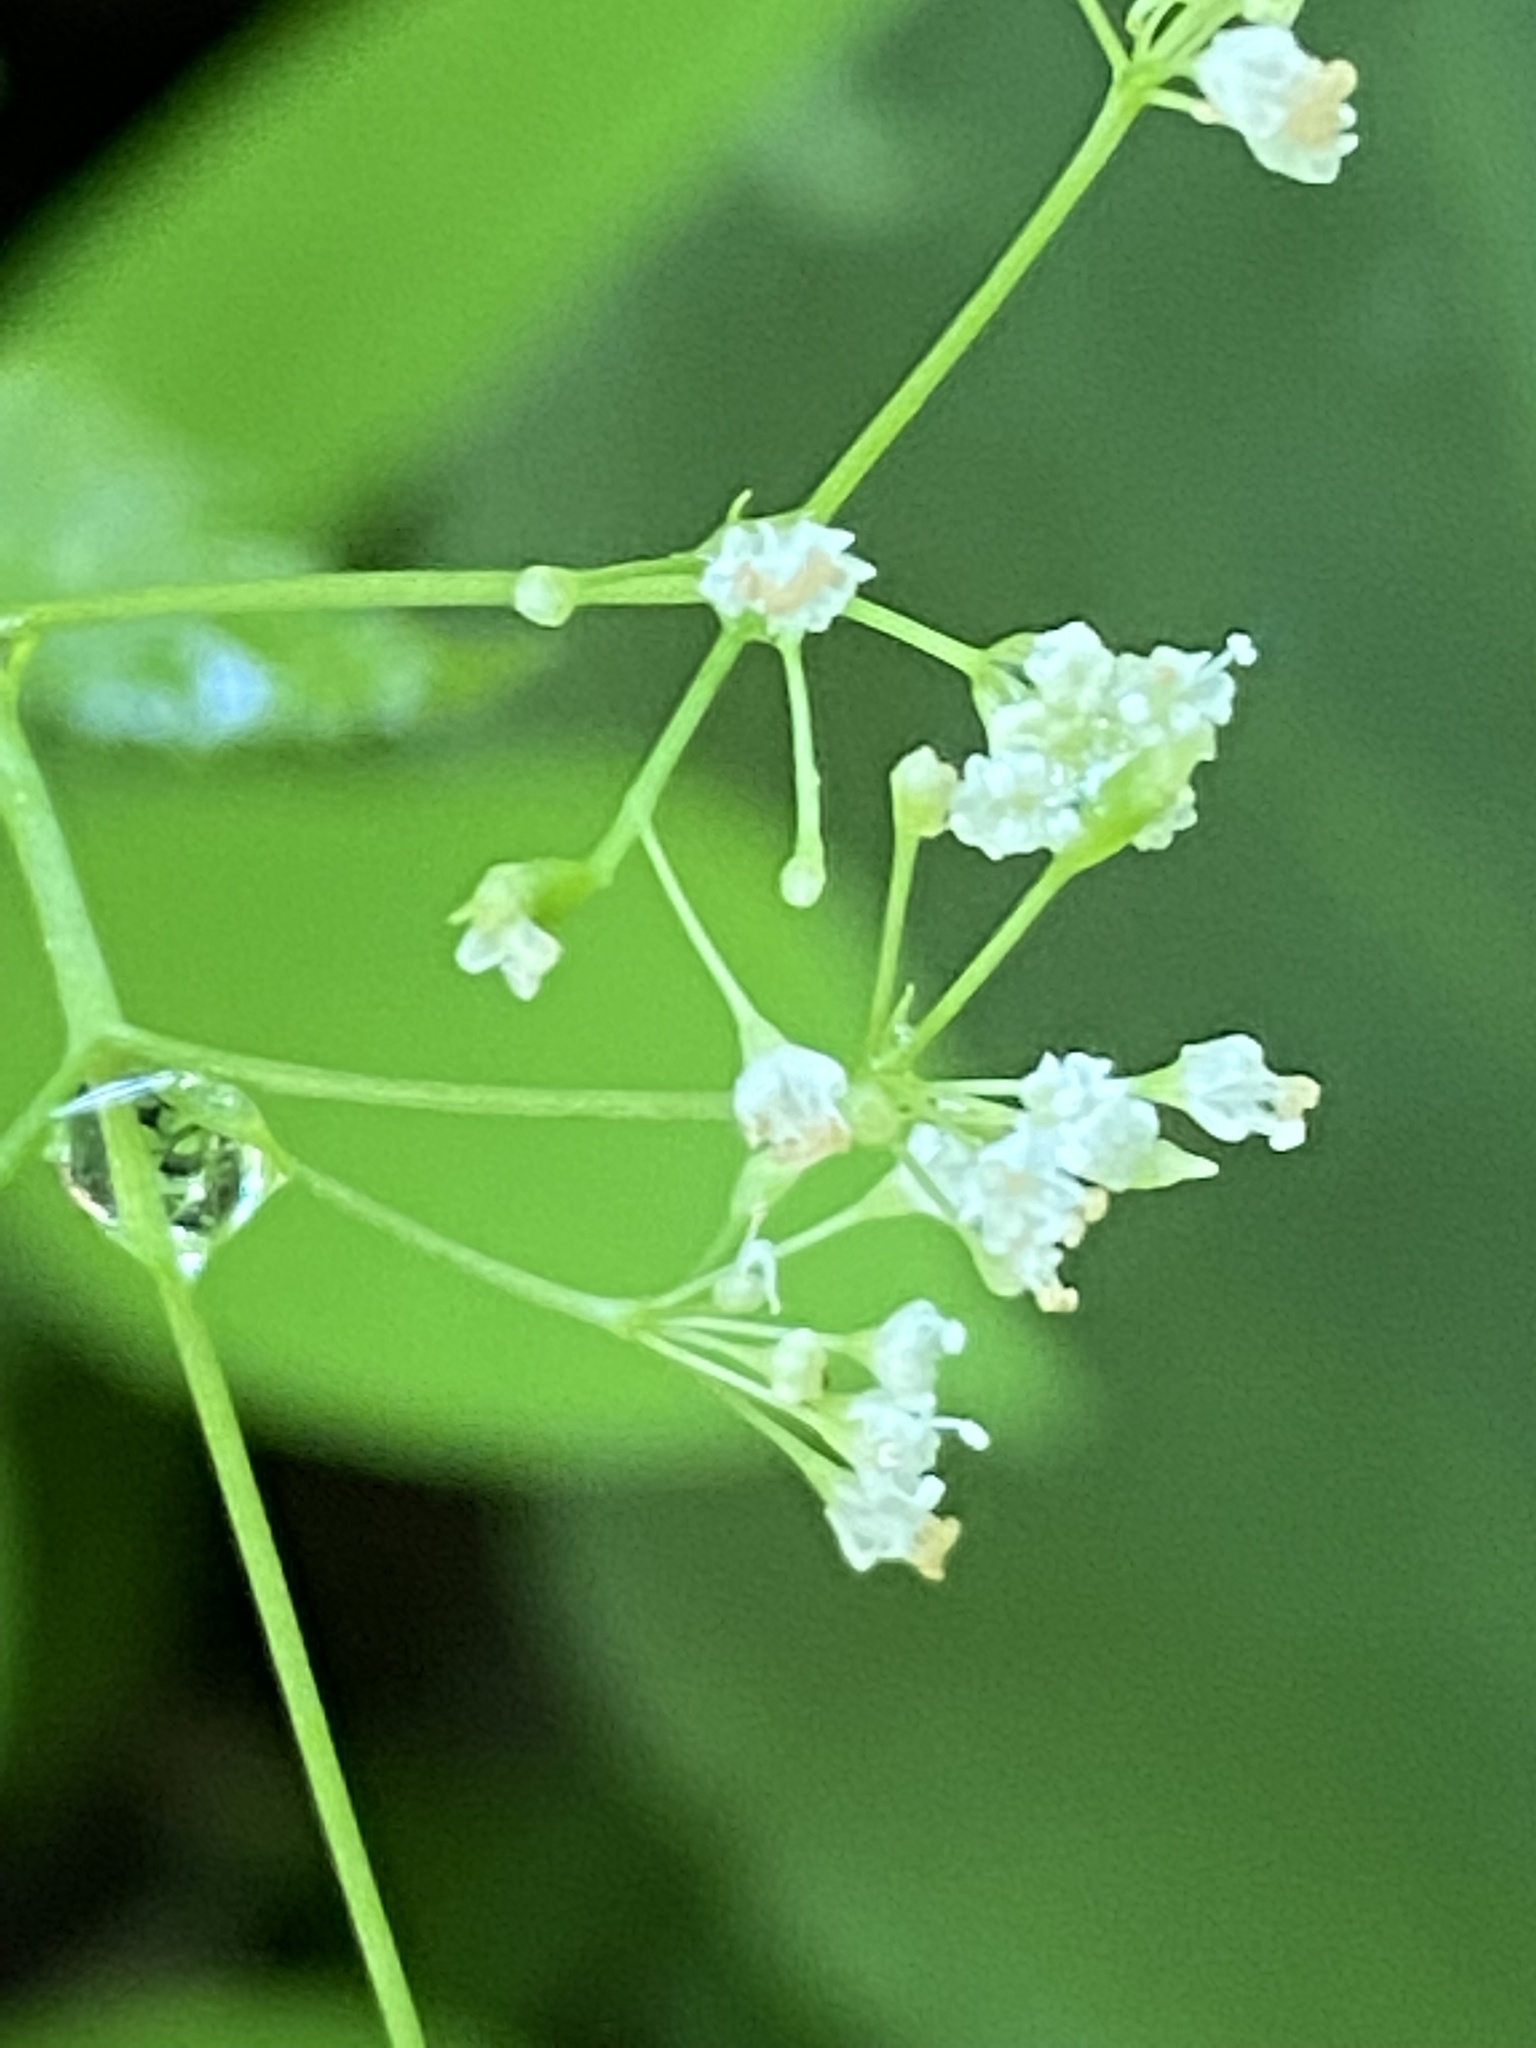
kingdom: Plantae
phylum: Tracheophyta
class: Magnoliopsida
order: Apiales
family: Apiaceae
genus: Cryptotaenia
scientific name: Cryptotaenia canadensis
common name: Honewort
